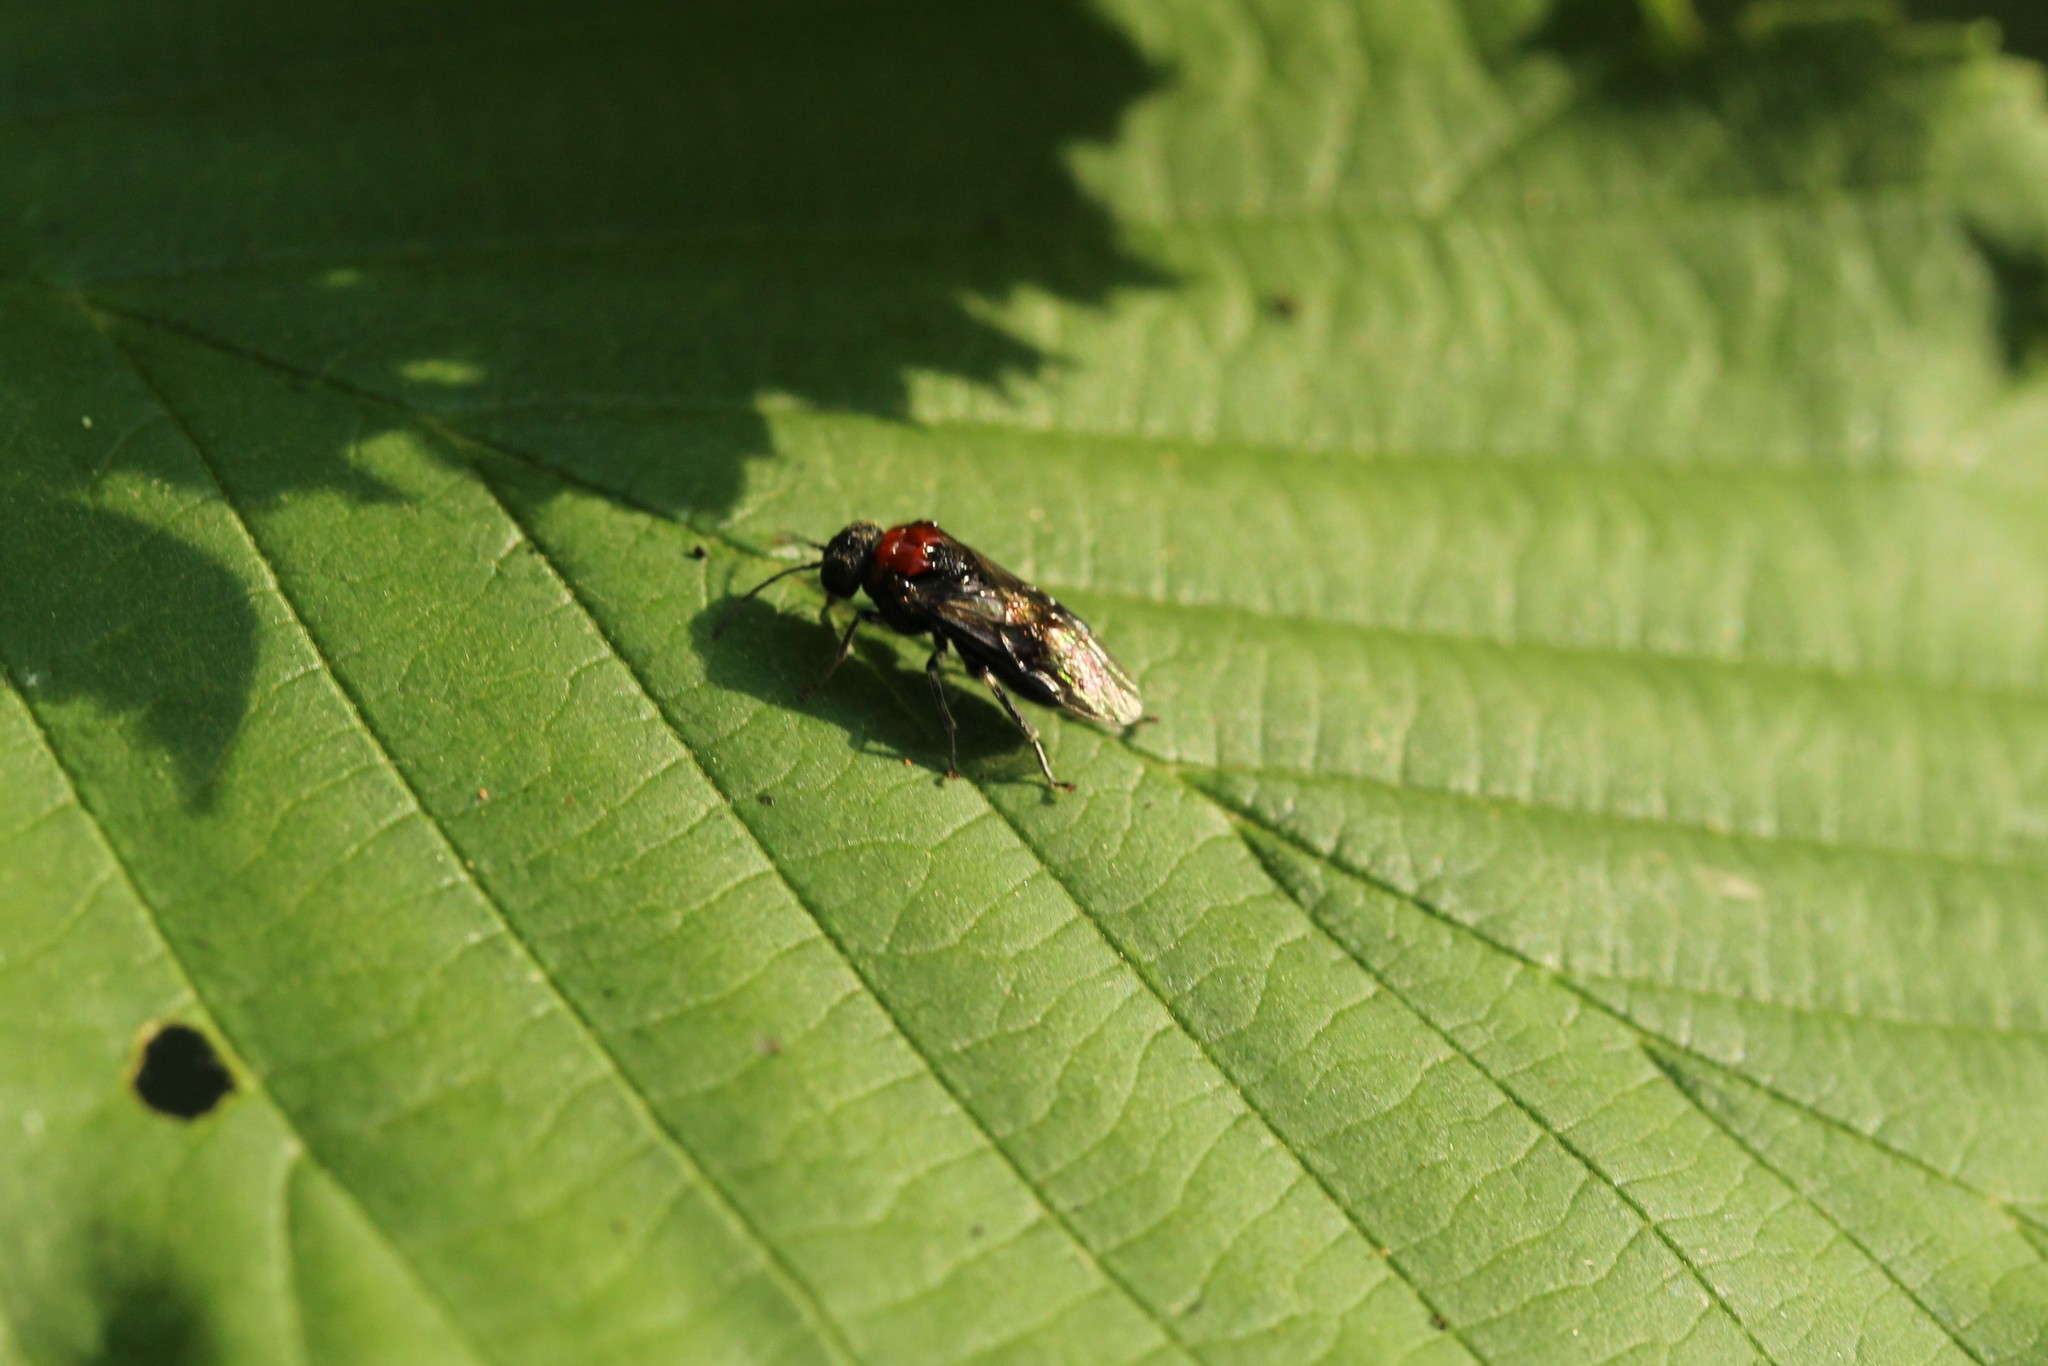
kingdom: Animalia
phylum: Arthropoda
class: Insecta
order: Hymenoptera
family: Tenthredinidae
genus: Eriocampa
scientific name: Eriocampa ovata
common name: Alder wooly sawfly
